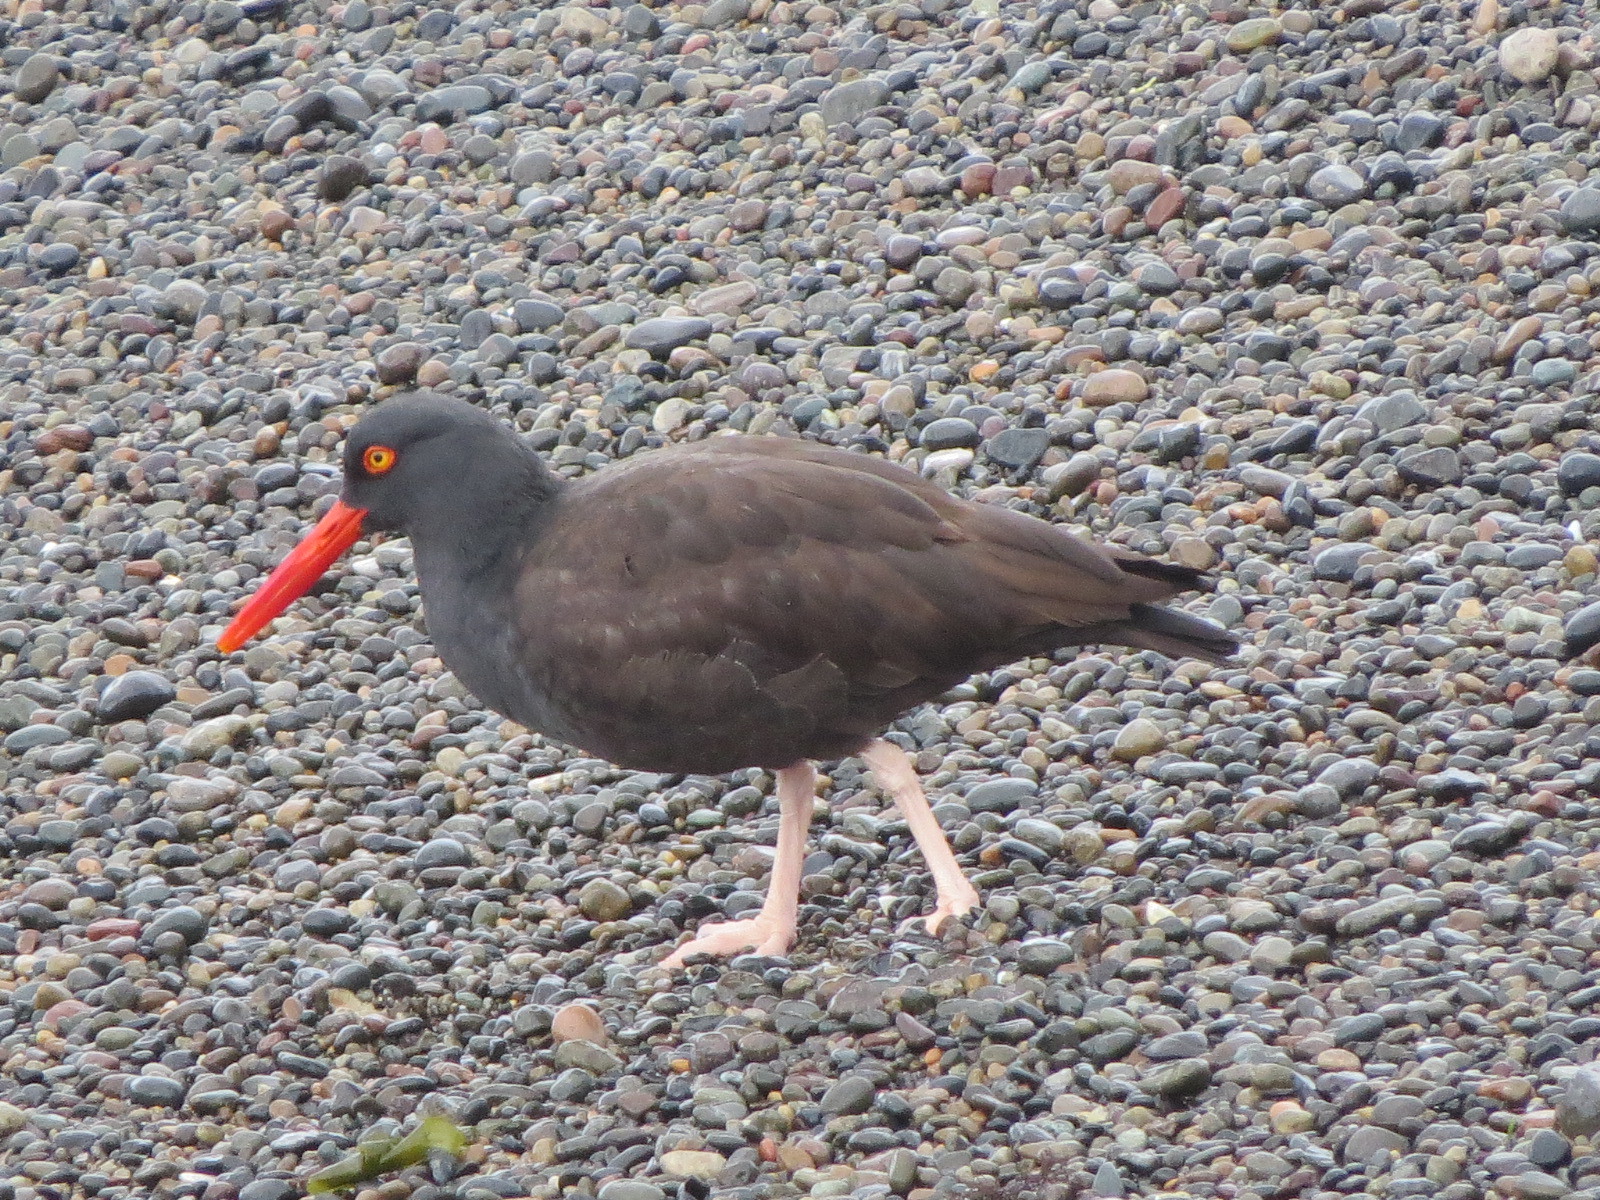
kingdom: Animalia
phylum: Chordata
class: Aves
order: Charadriiformes
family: Haematopodidae
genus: Haematopus
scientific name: Haematopus bachmani
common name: Black oystercatcher
